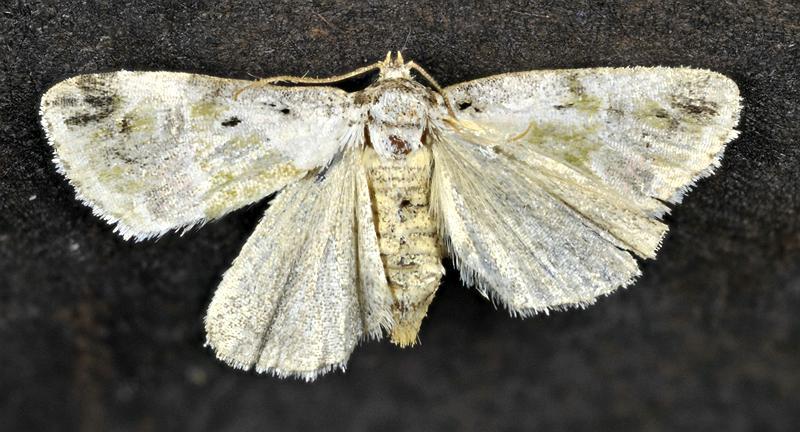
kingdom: Animalia
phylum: Arthropoda
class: Insecta
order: Lepidoptera
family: Noctuidae
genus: Maliattha
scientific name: Maliattha synochitis
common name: Black-dotted glyph
